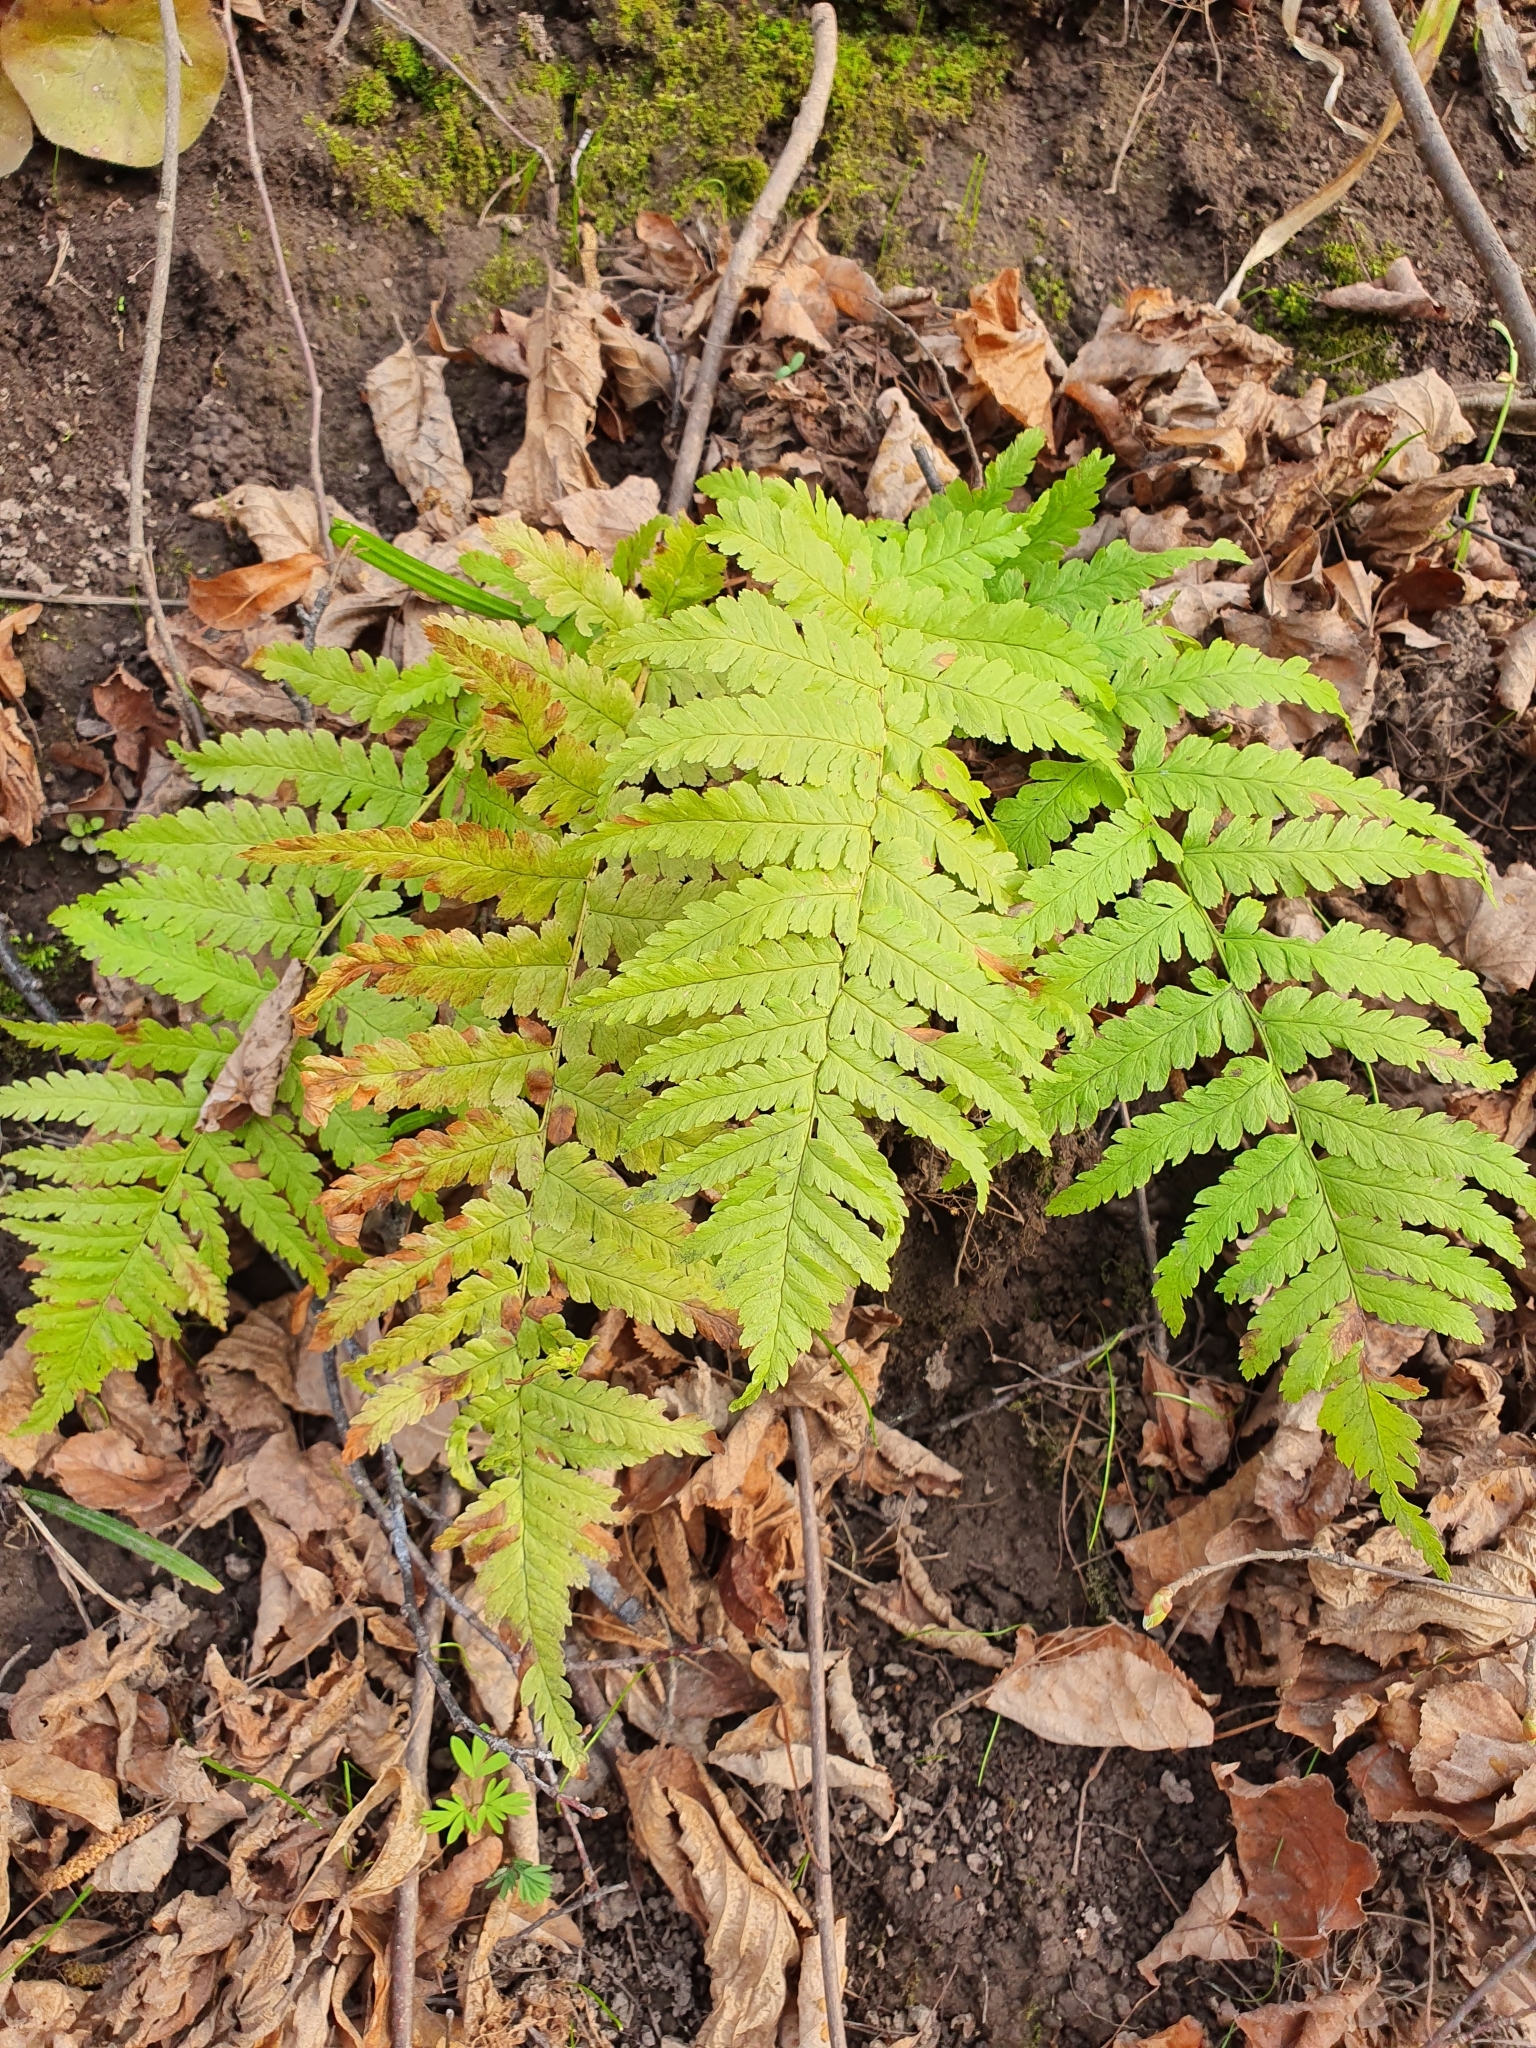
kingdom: Plantae
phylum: Tracheophyta
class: Polypodiopsida
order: Polypodiales
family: Dryopteridaceae
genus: Dryopteris
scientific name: Dryopteris filix-mas
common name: Male fern
